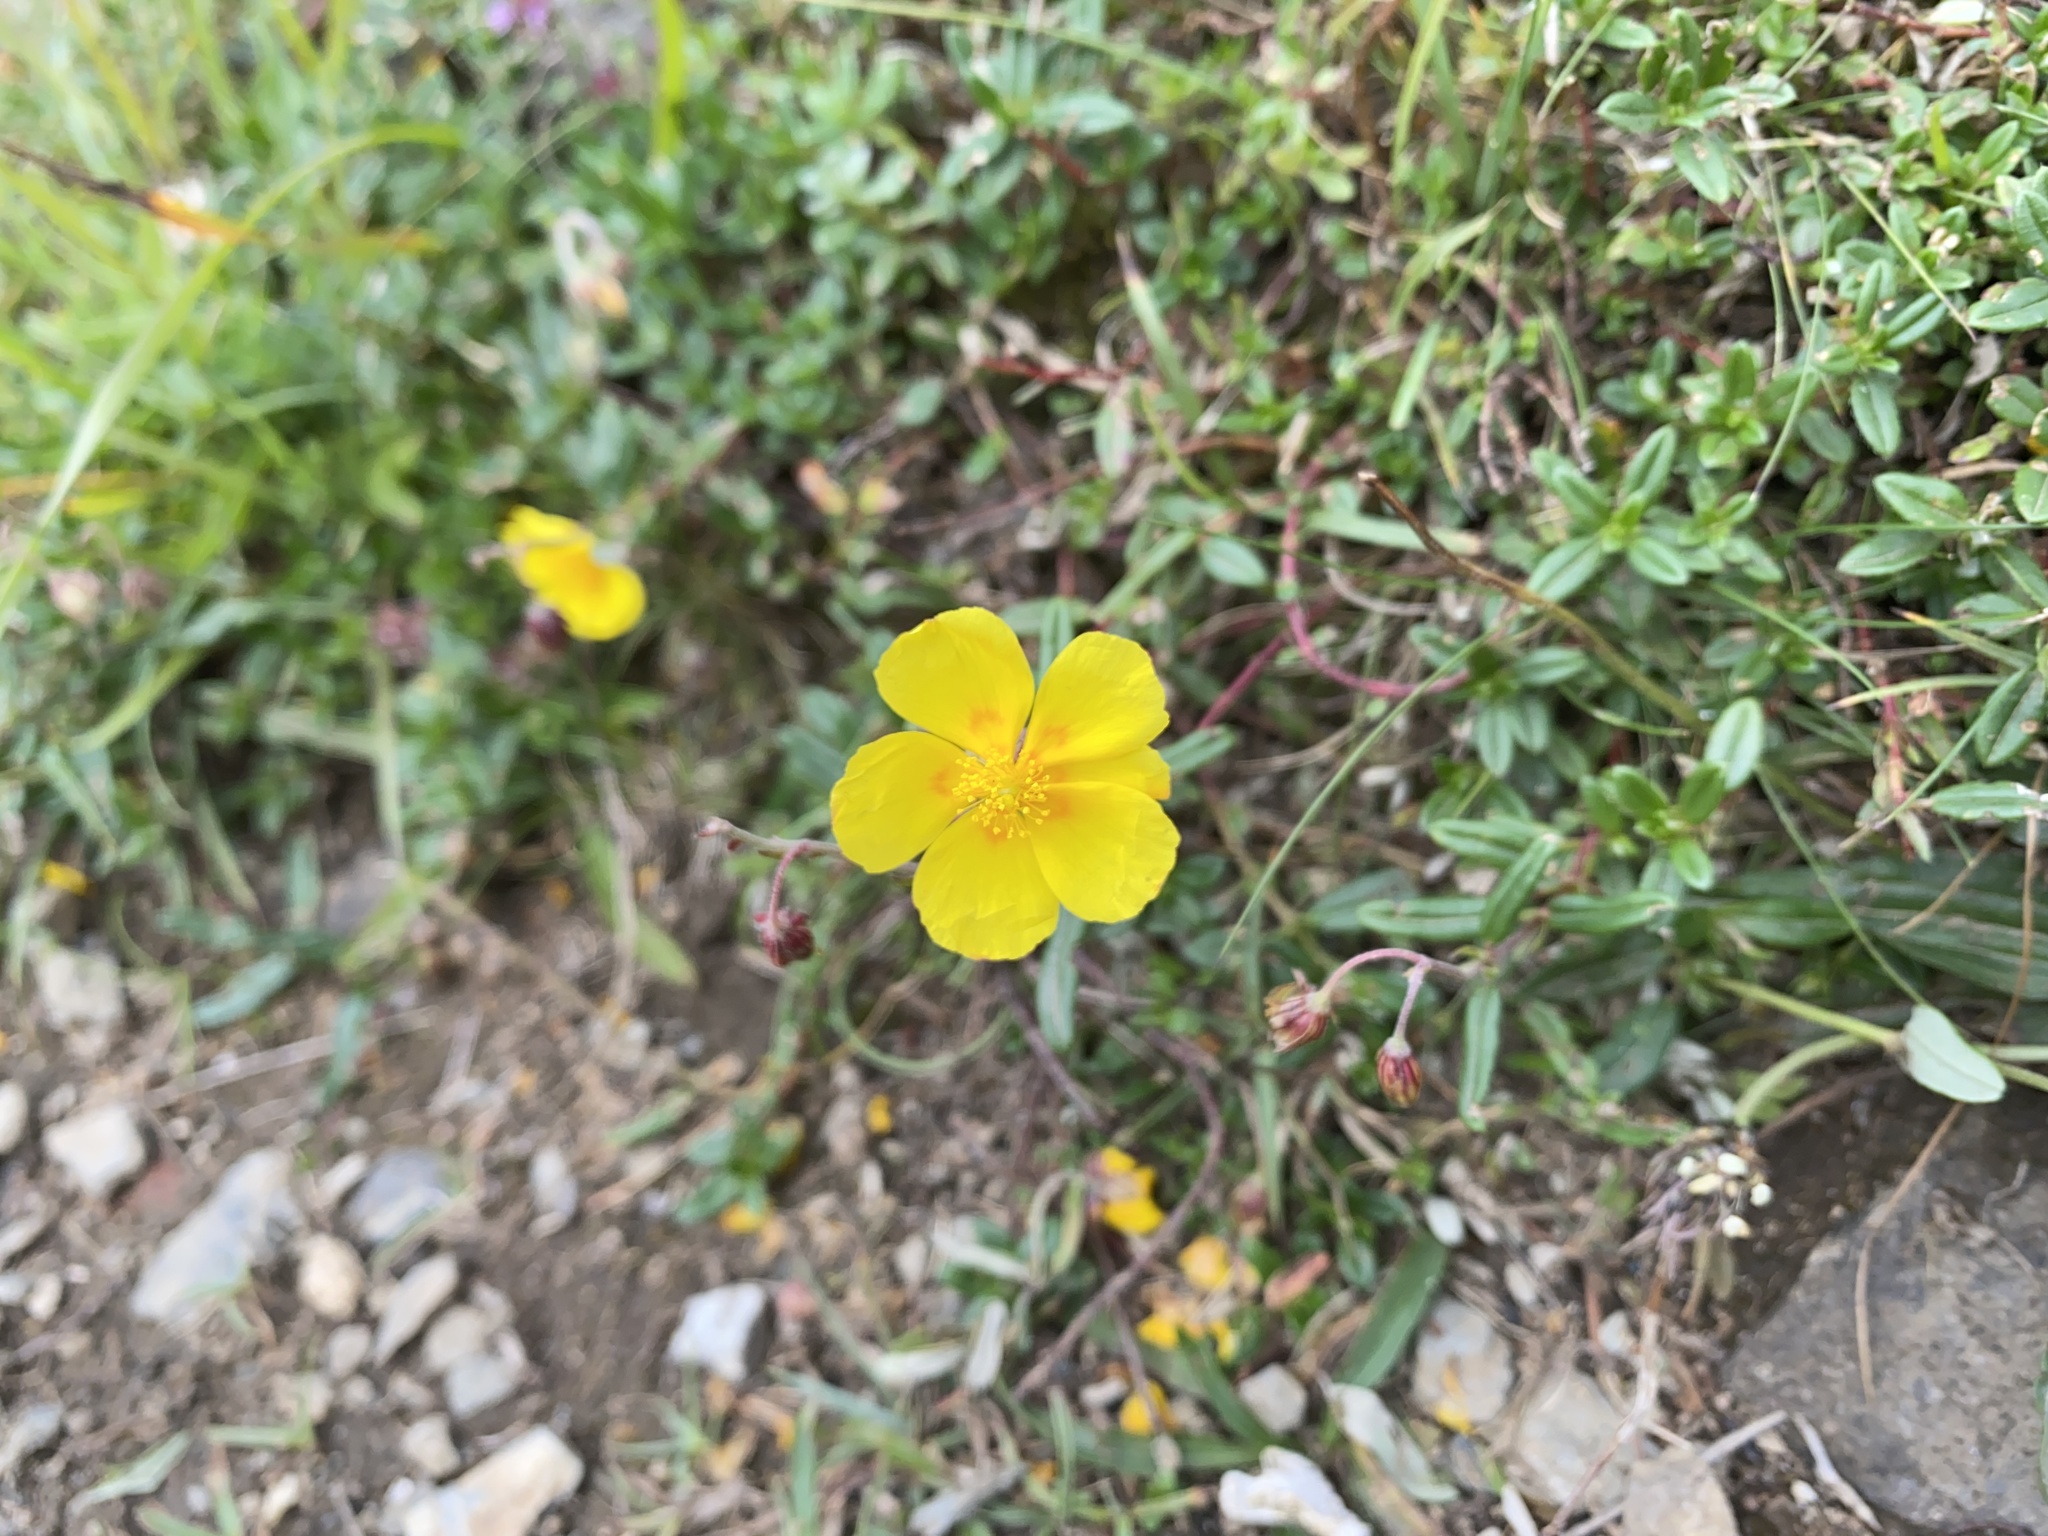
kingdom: Plantae
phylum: Tracheophyta
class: Magnoliopsida
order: Malvales
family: Cistaceae
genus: Helianthemum
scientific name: Helianthemum nummularium
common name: Common rock-rose
